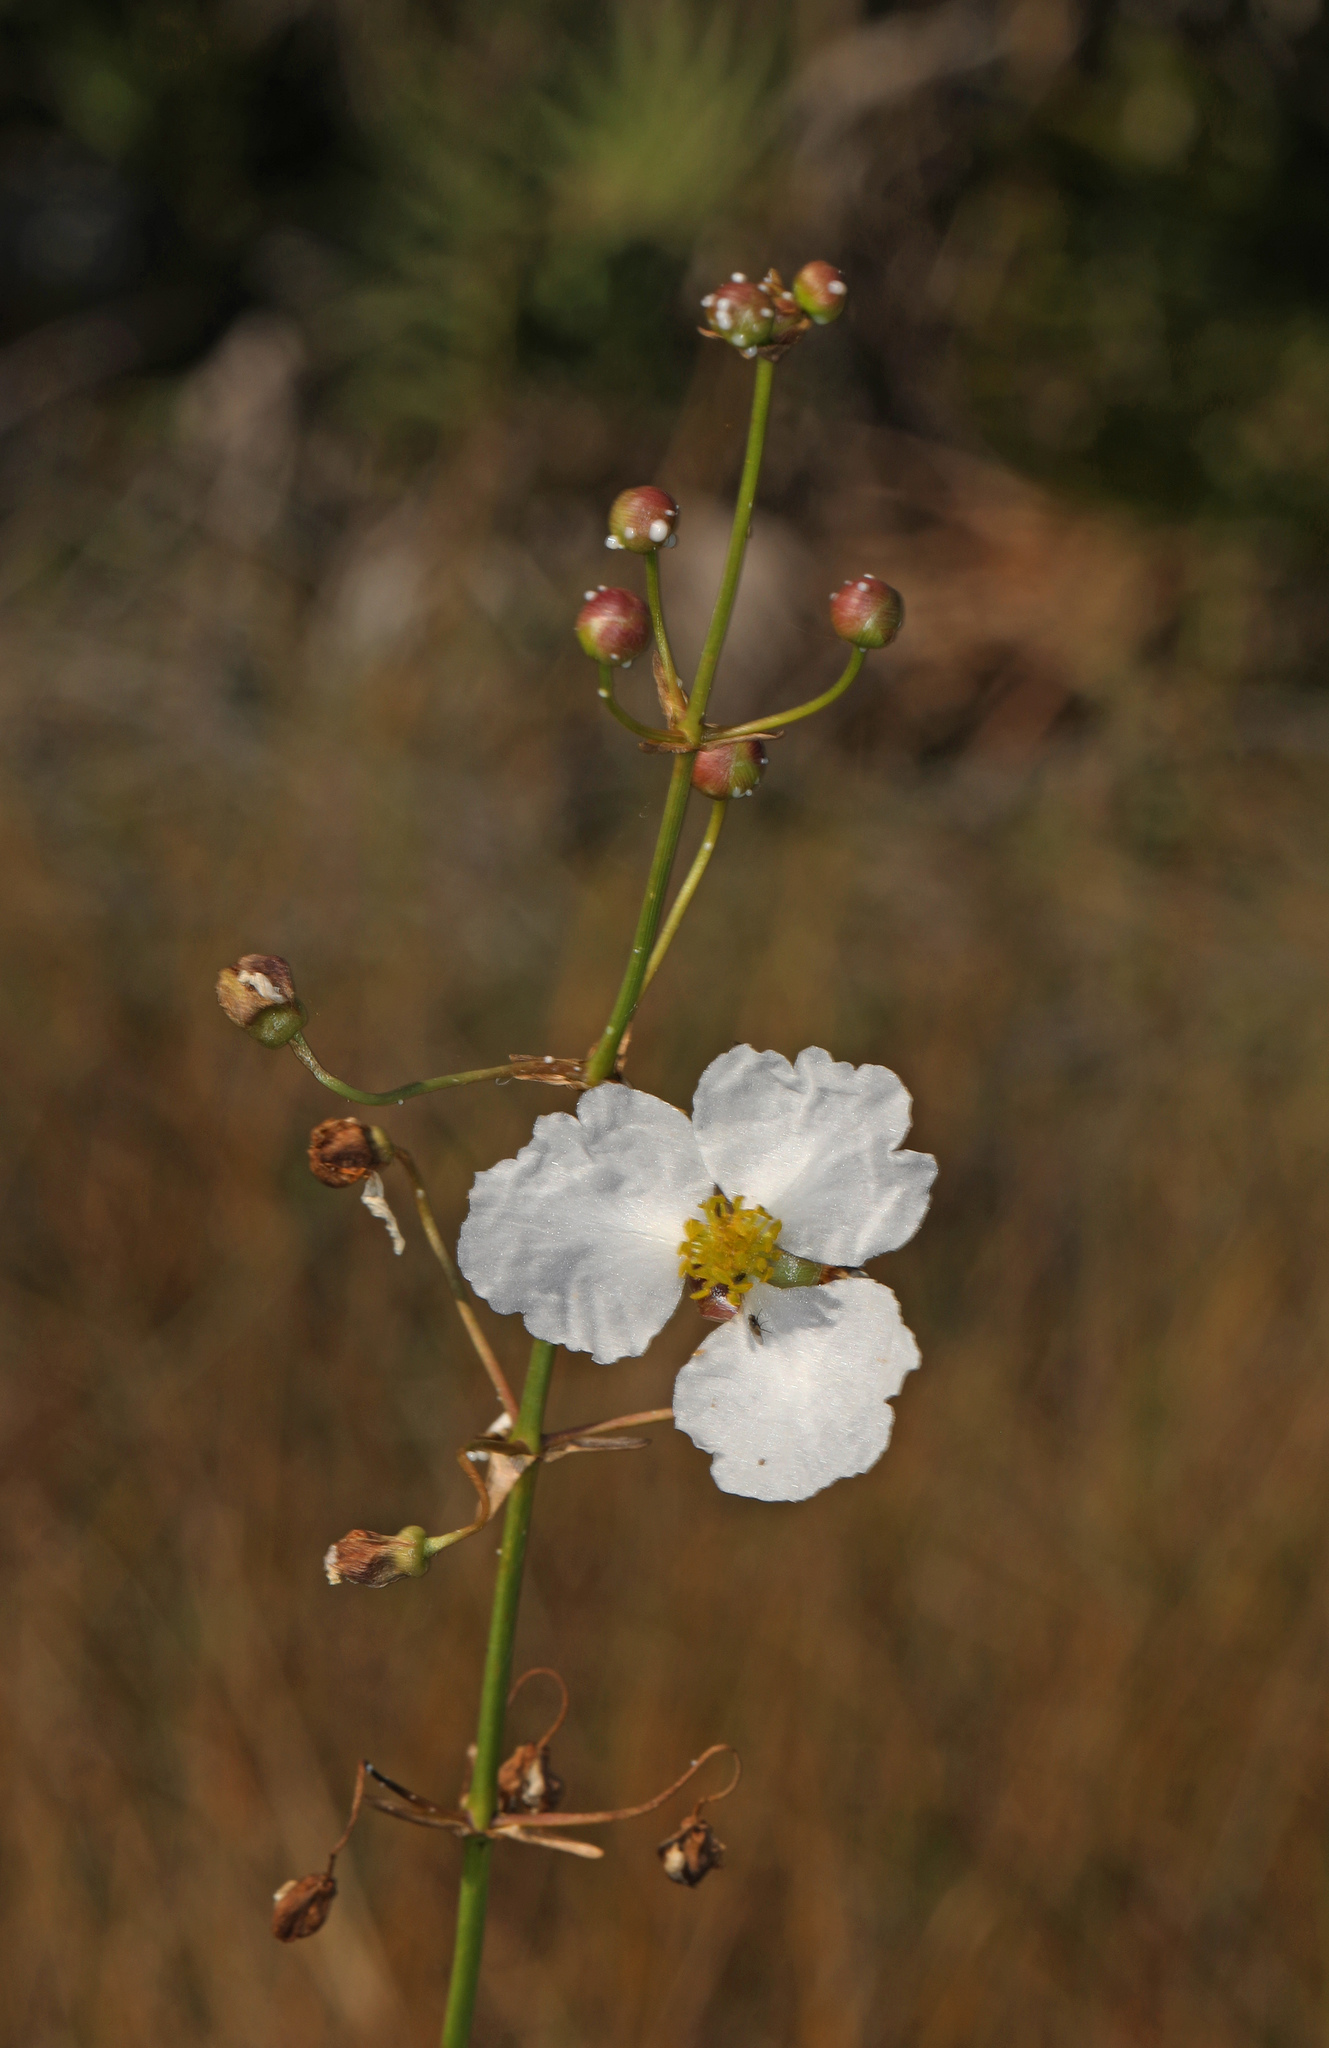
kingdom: Plantae
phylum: Tracheophyta
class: Liliopsida
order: Alismatales
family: Alismataceae
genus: Sagittaria
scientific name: Sagittaria lancifolia
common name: Lance-leaf arrowhead
